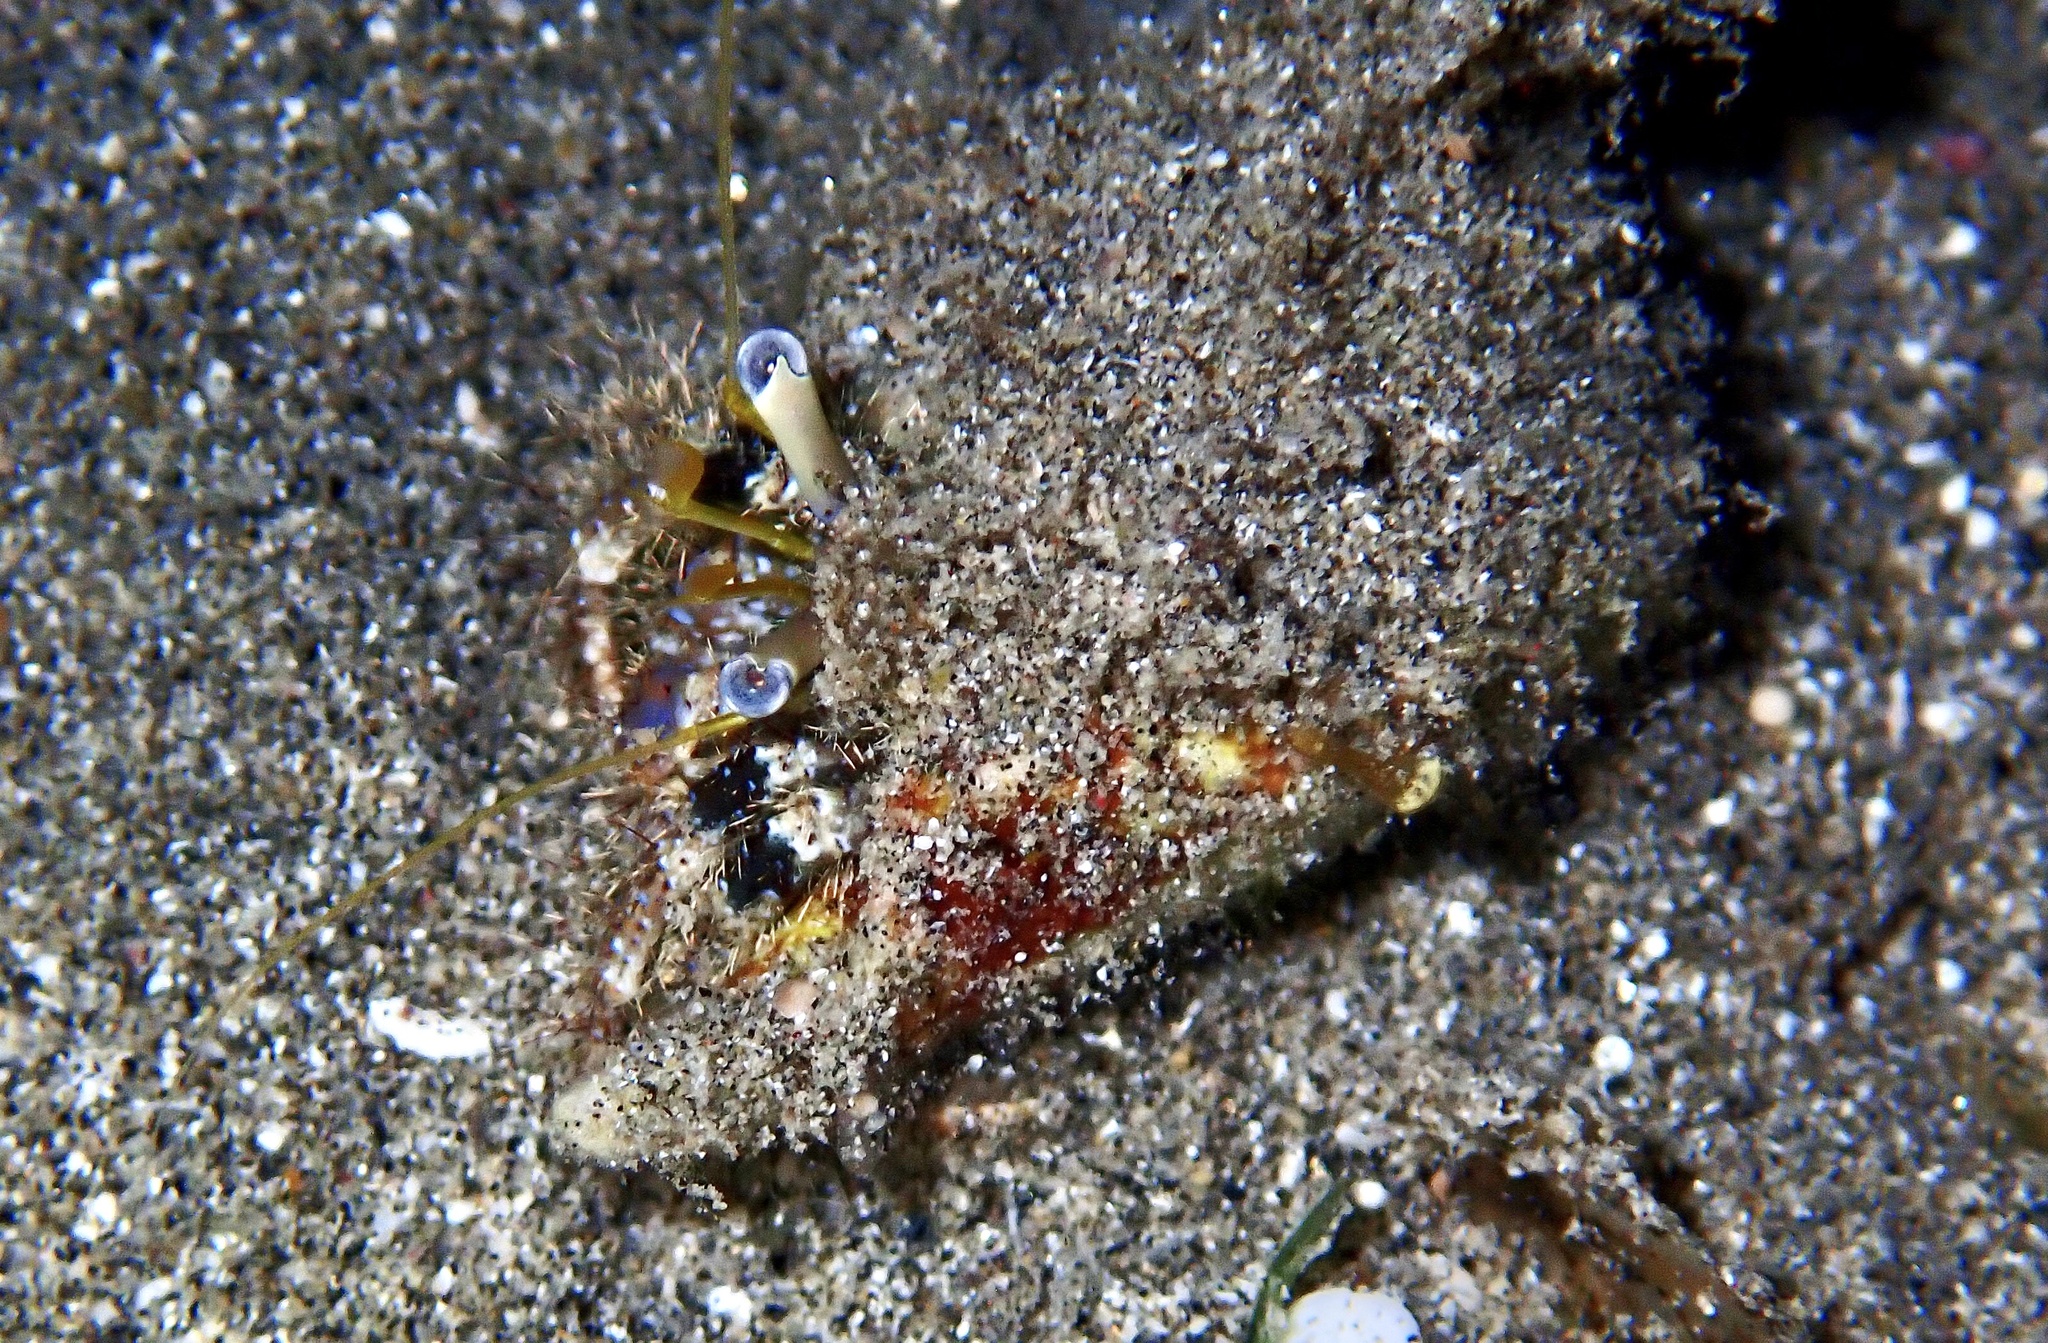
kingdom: Animalia
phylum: Arthropoda
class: Malacostraca
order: Decapoda
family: Diogenidae
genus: Dardanus
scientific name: Dardanus lagopodes
